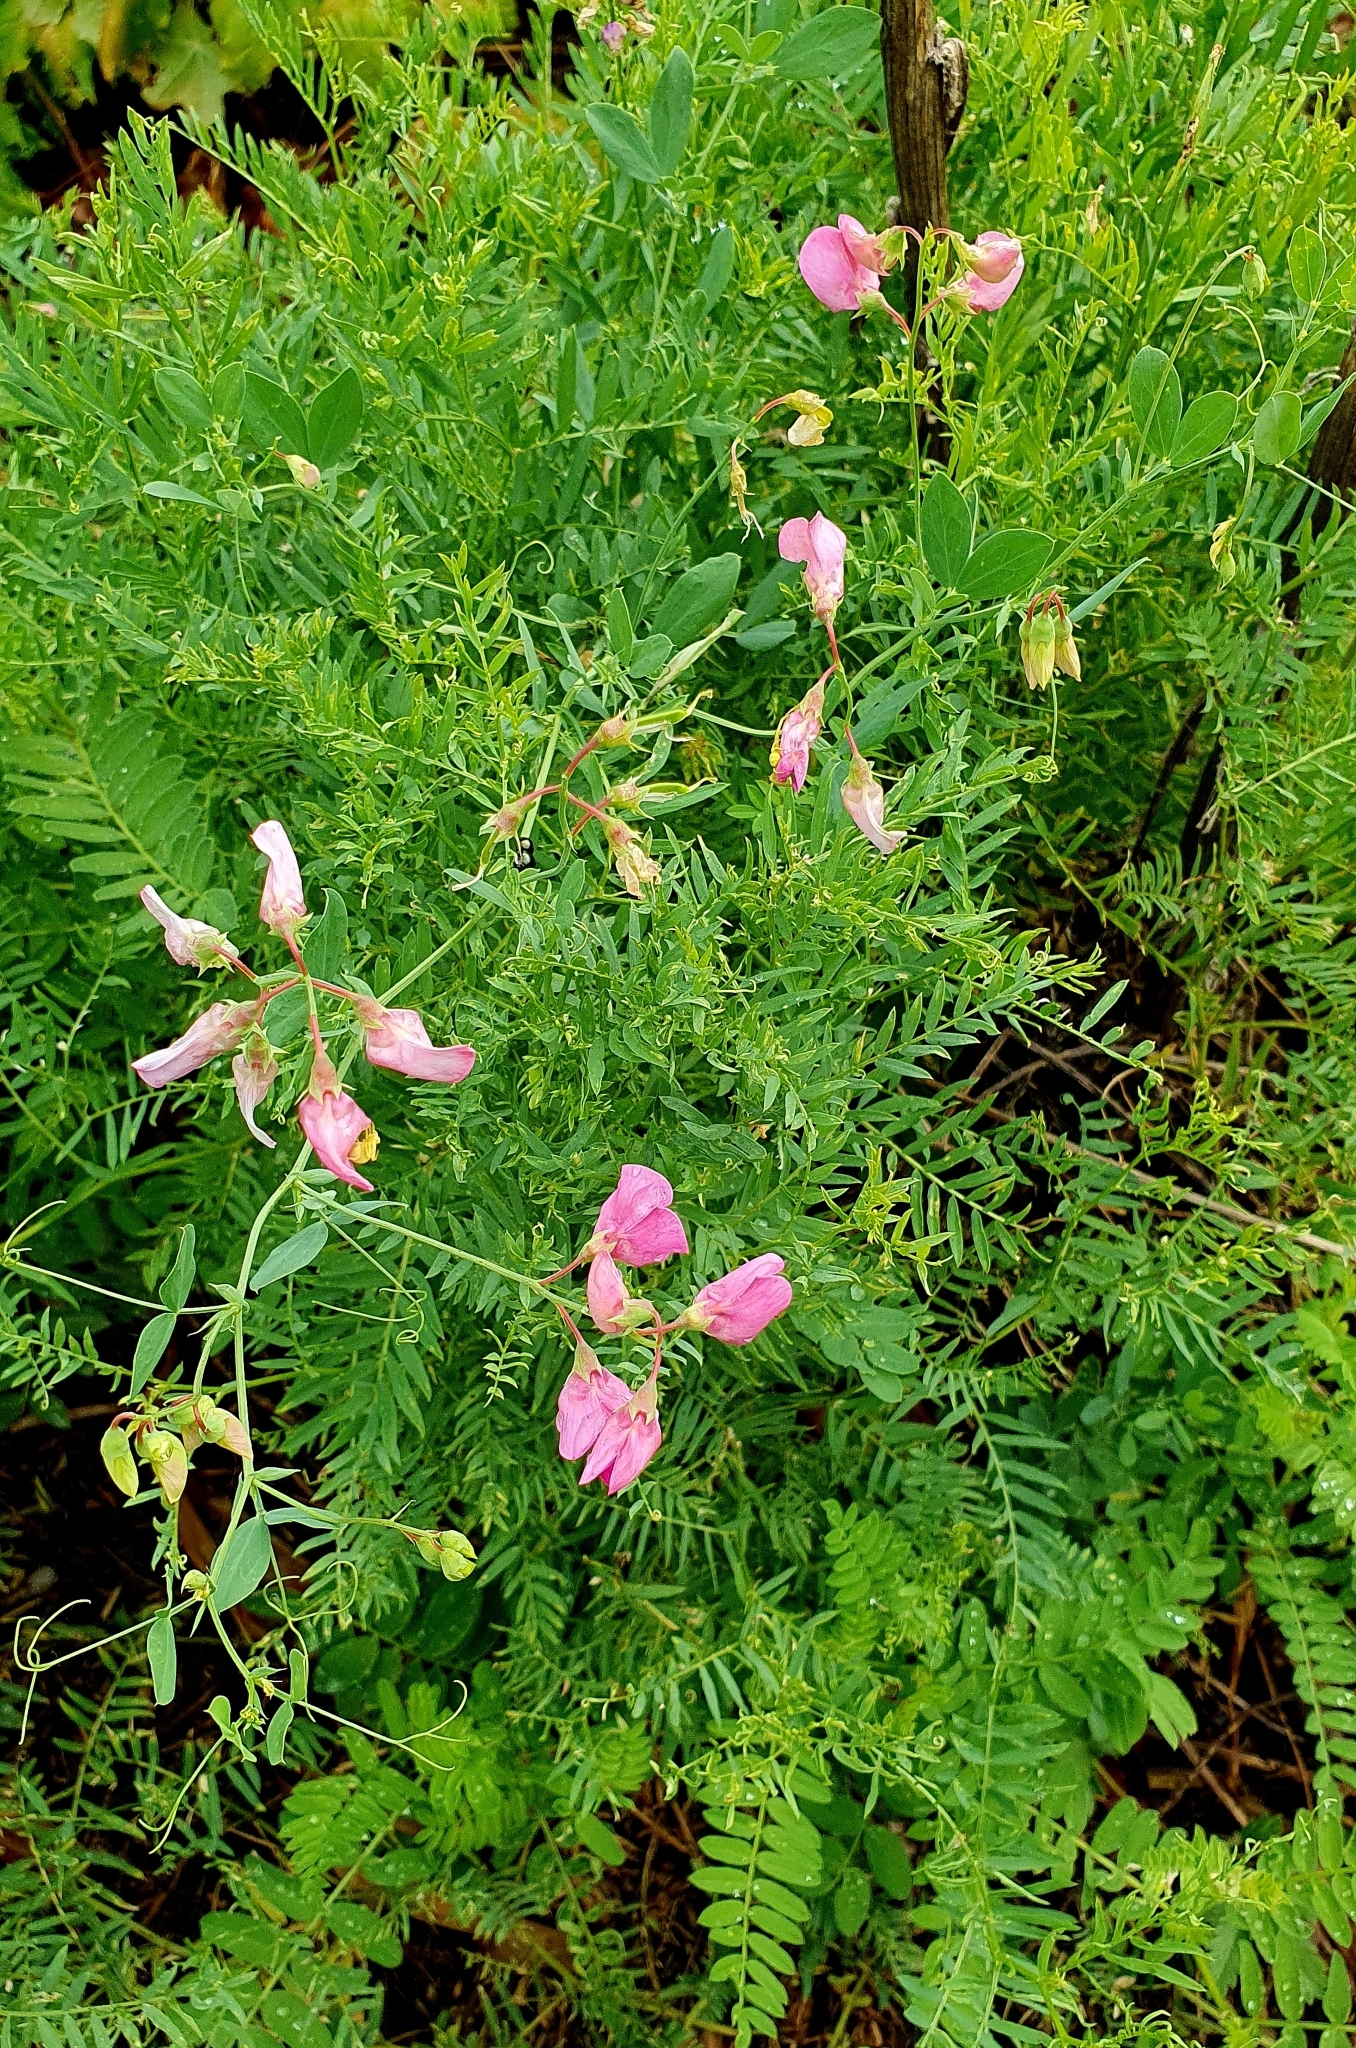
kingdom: Plantae
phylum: Tracheophyta
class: Magnoliopsida
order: Fabales
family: Fabaceae
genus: Lathyrus
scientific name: Lathyrus tuberosus
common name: Tuberous pea
